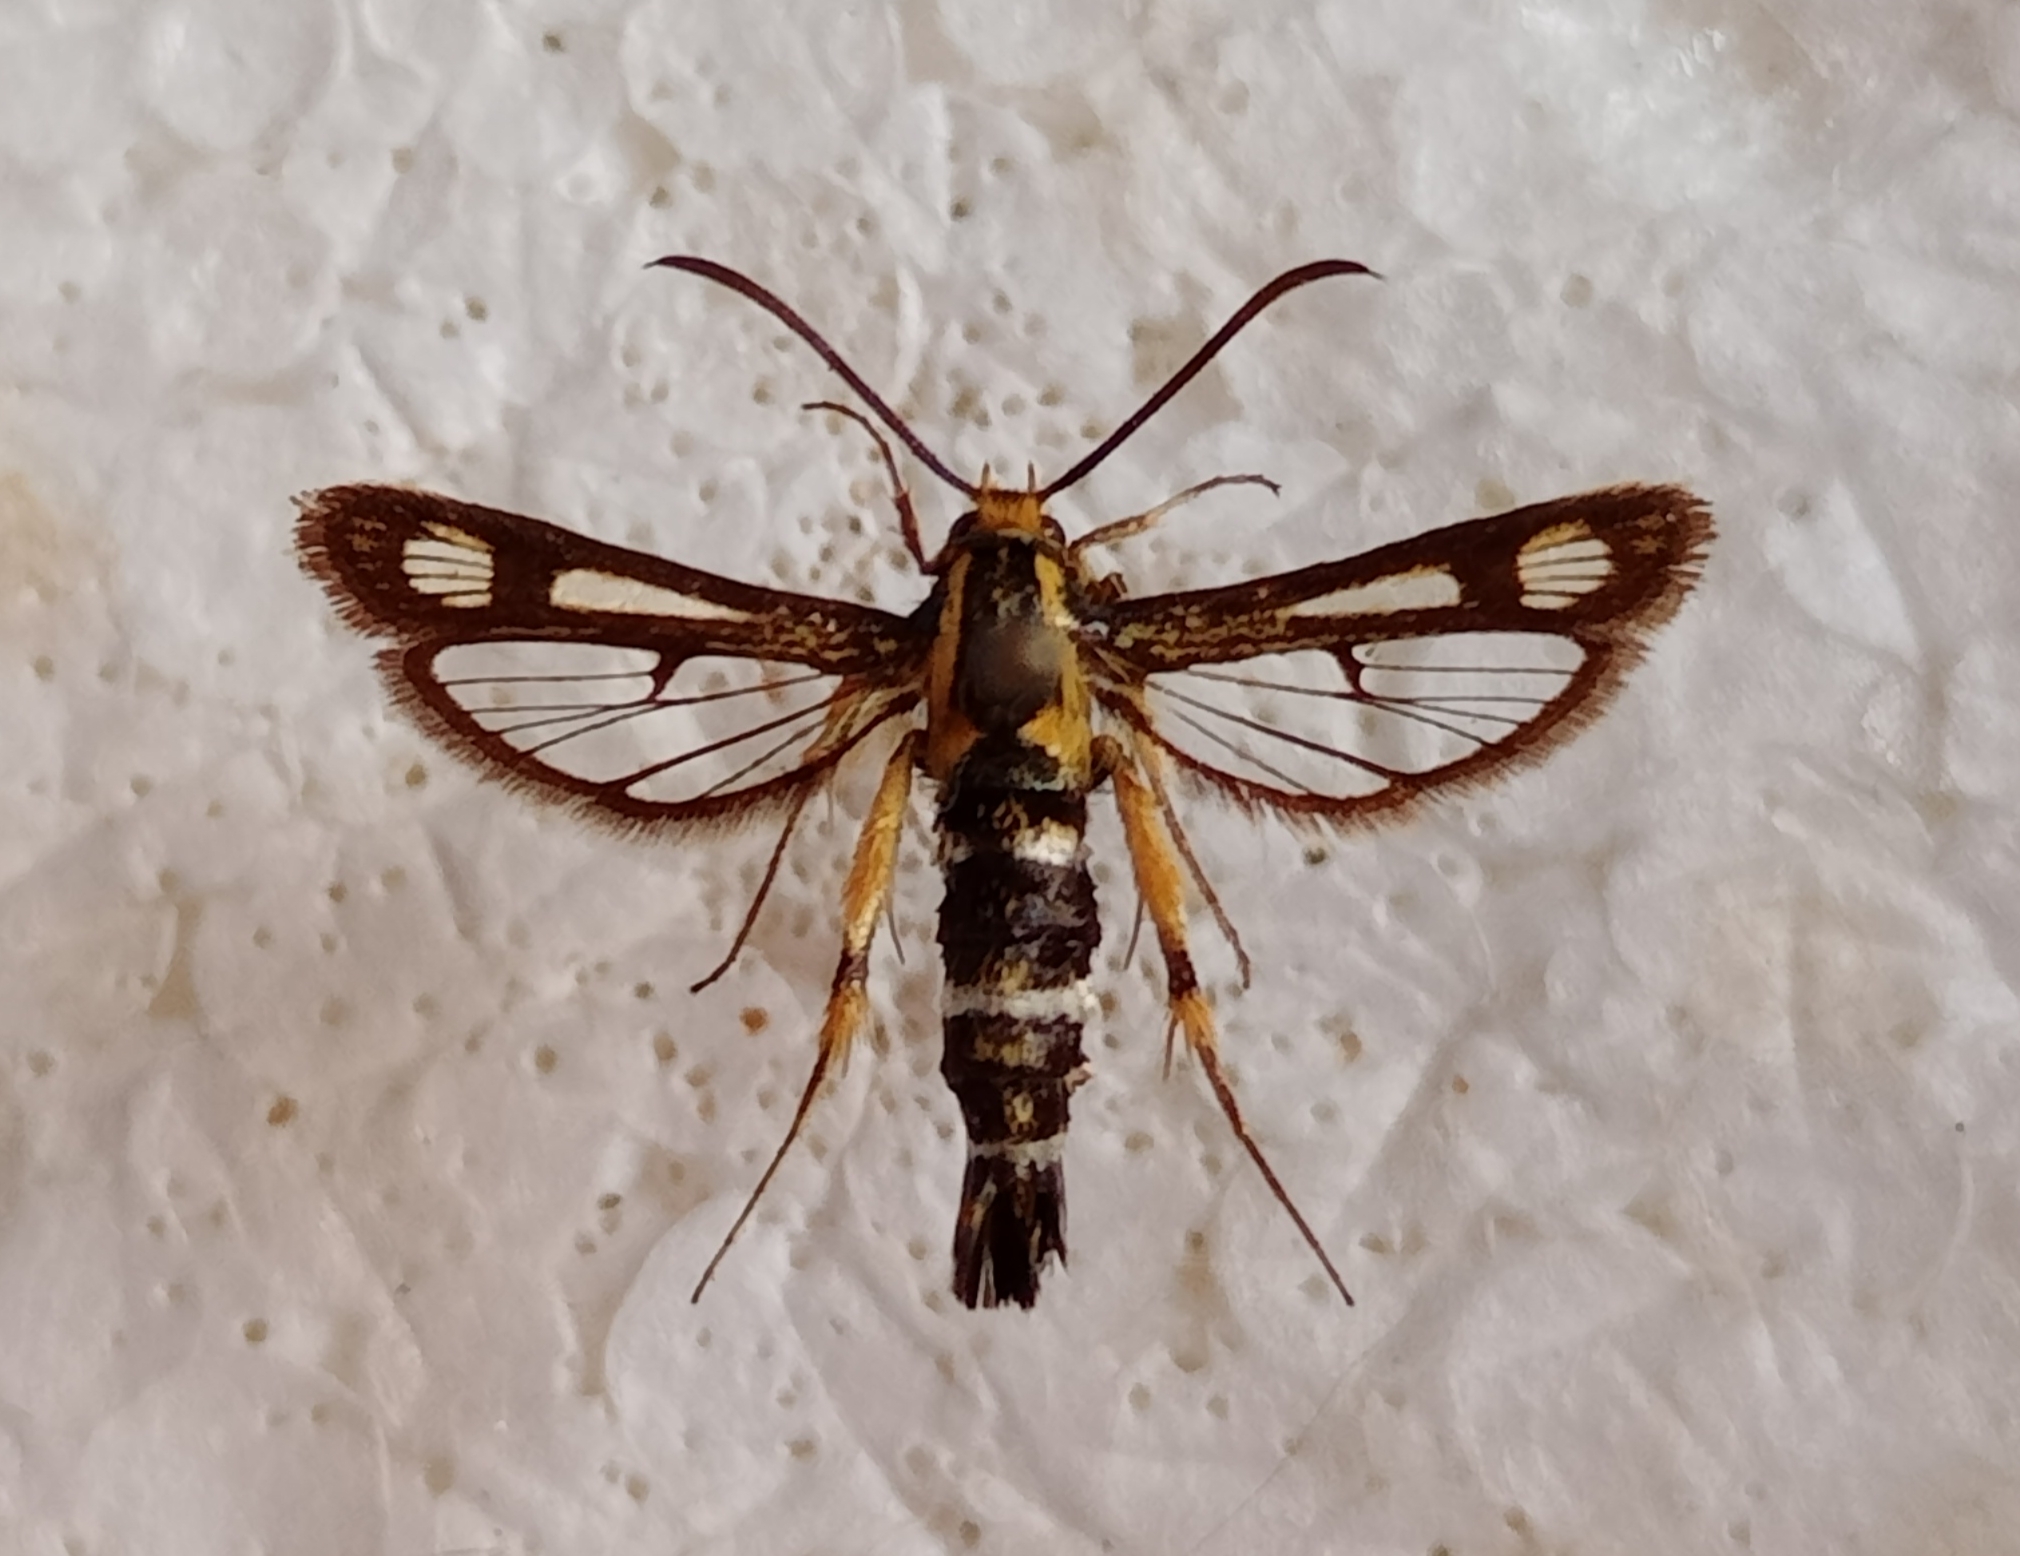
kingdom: Animalia
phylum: Arthropoda
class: Insecta
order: Lepidoptera
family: Sesiidae
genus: Chamaesphecia
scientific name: Chamaesphecia astatiformis
